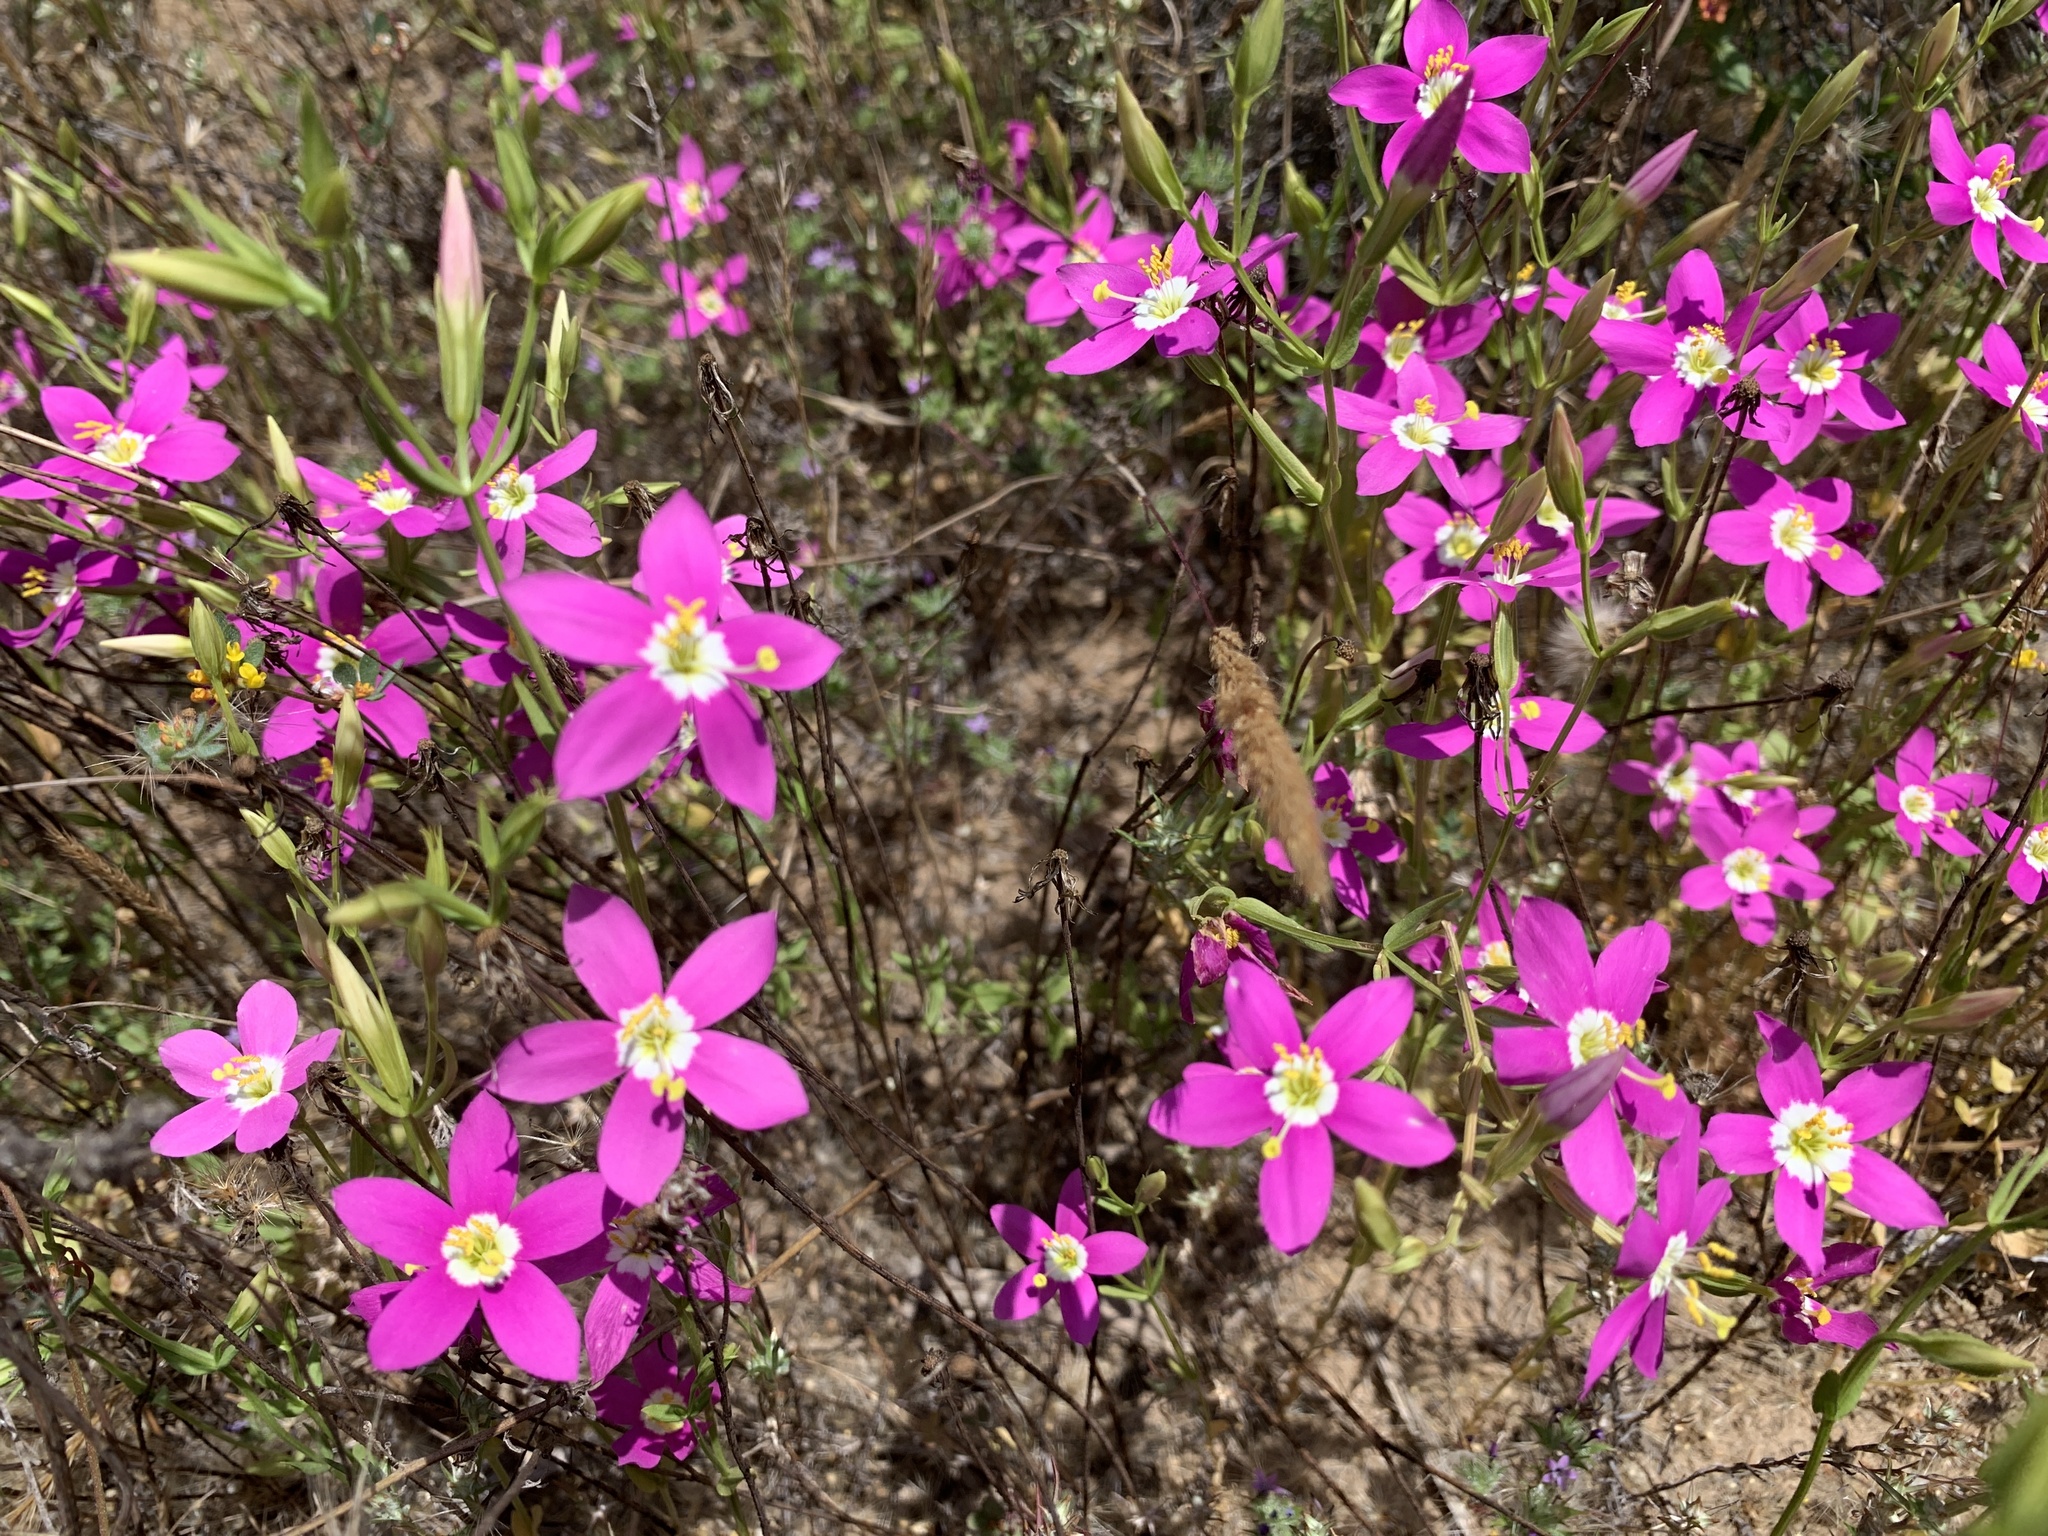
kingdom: Plantae
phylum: Tracheophyta
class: Magnoliopsida
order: Gentianales
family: Gentianaceae
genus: Zeltnera
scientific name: Zeltnera venusta
